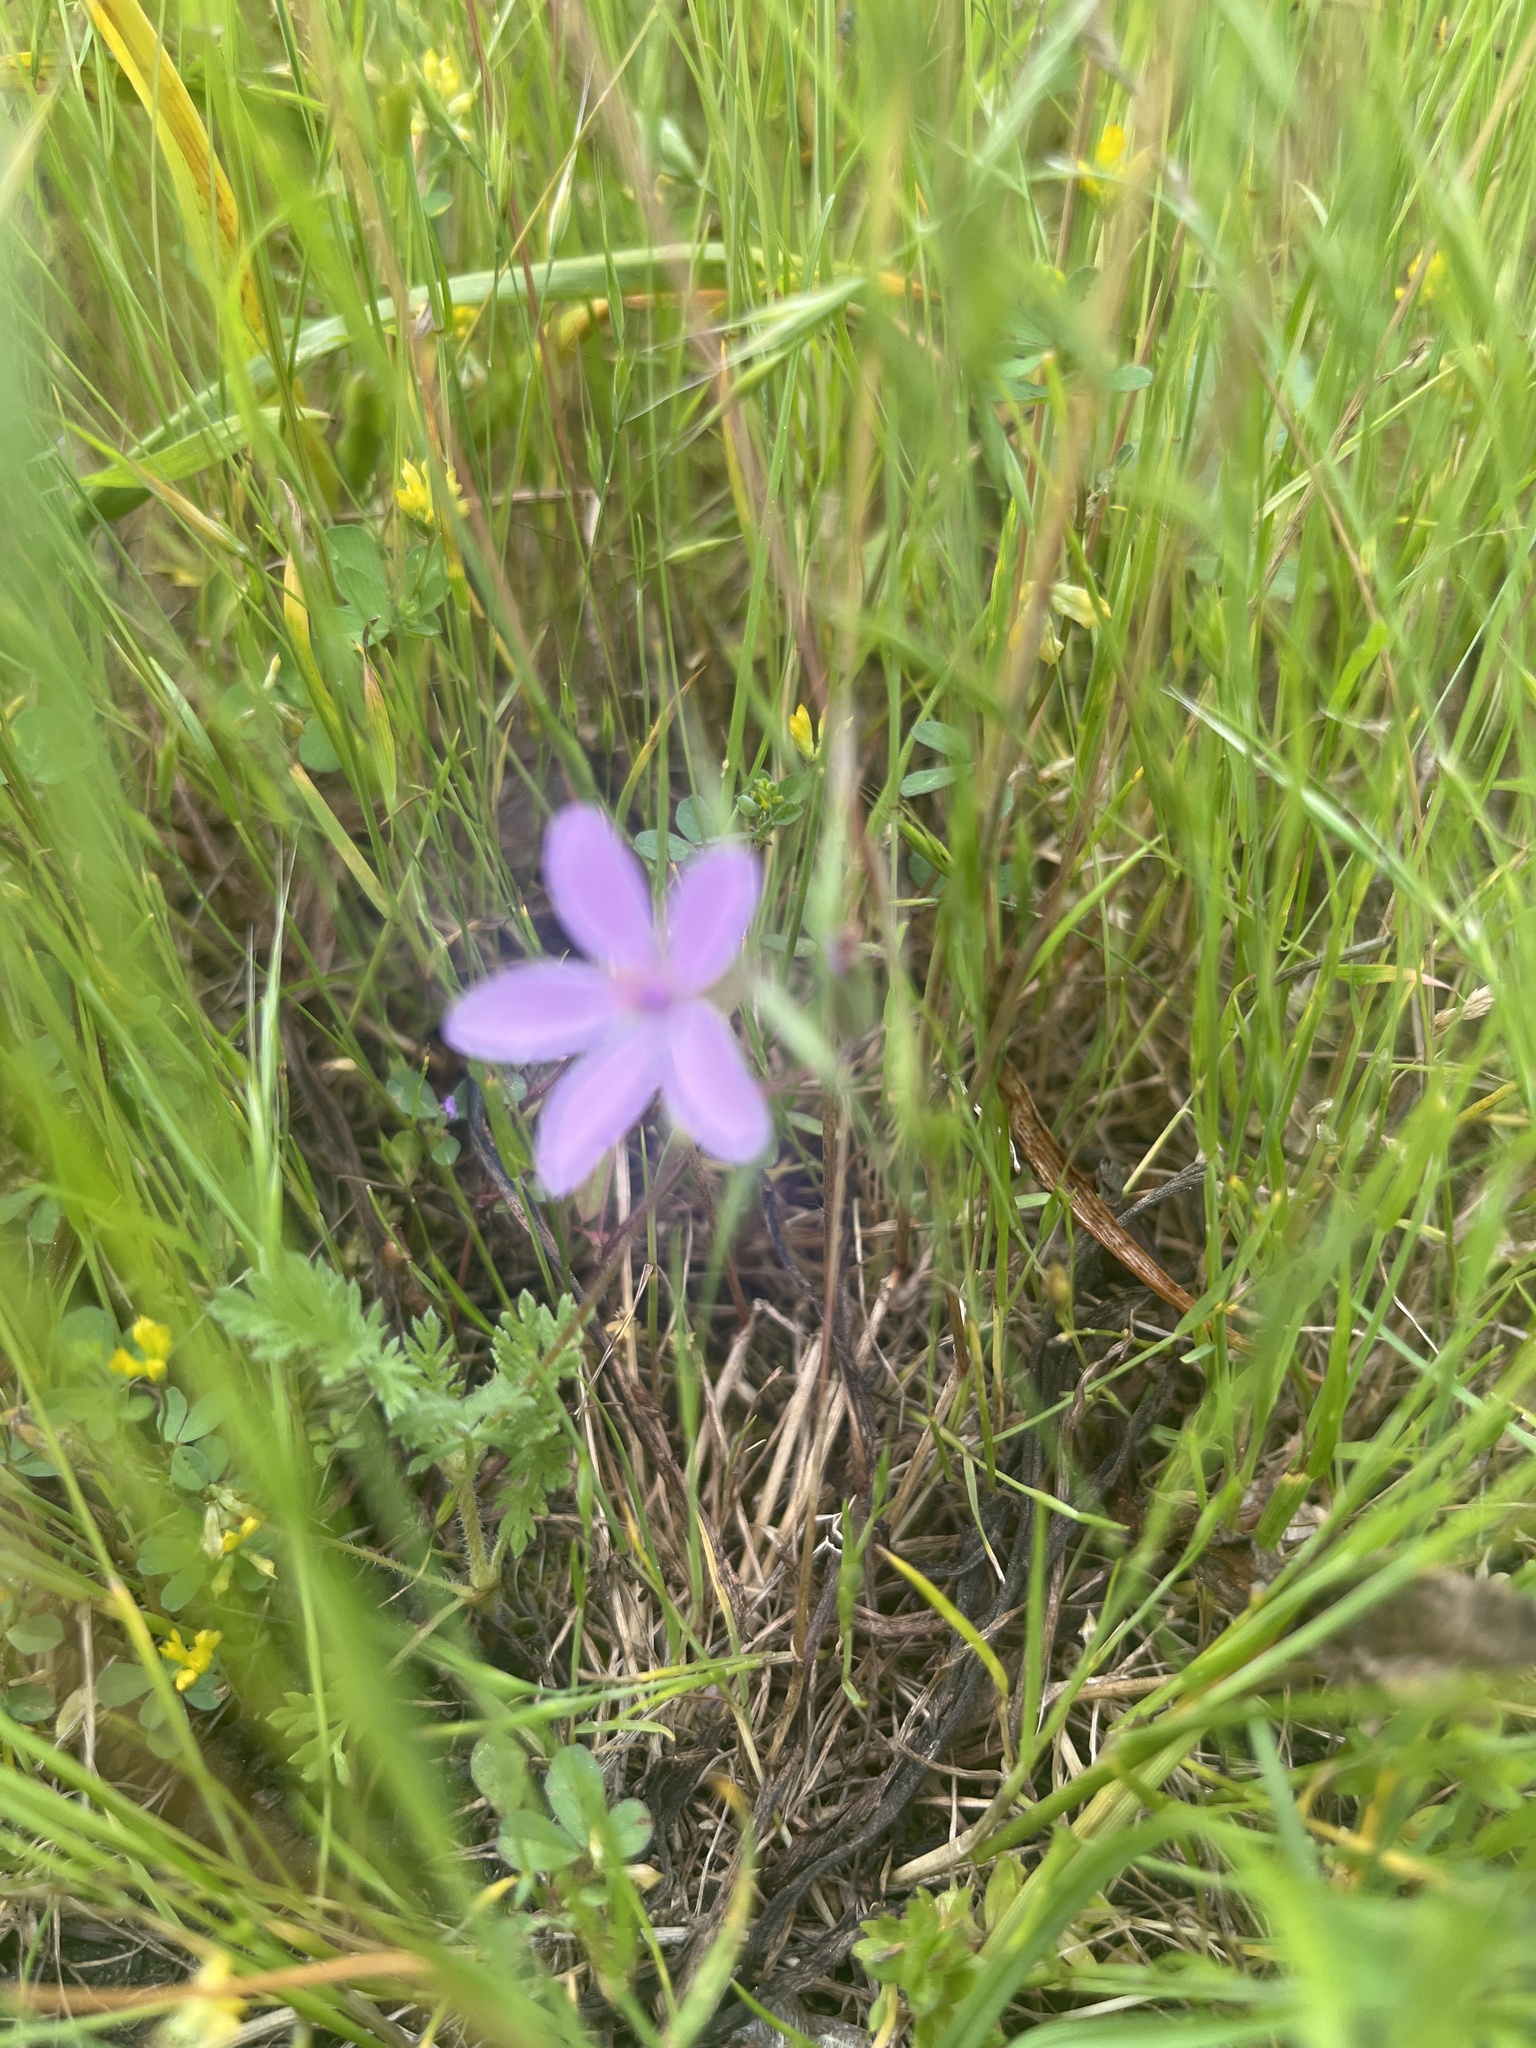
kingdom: Plantae
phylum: Tracheophyta
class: Magnoliopsida
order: Geraniales
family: Geraniaceae
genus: Erodium
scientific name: Erodium cicutarium
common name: Common stork's-bill
